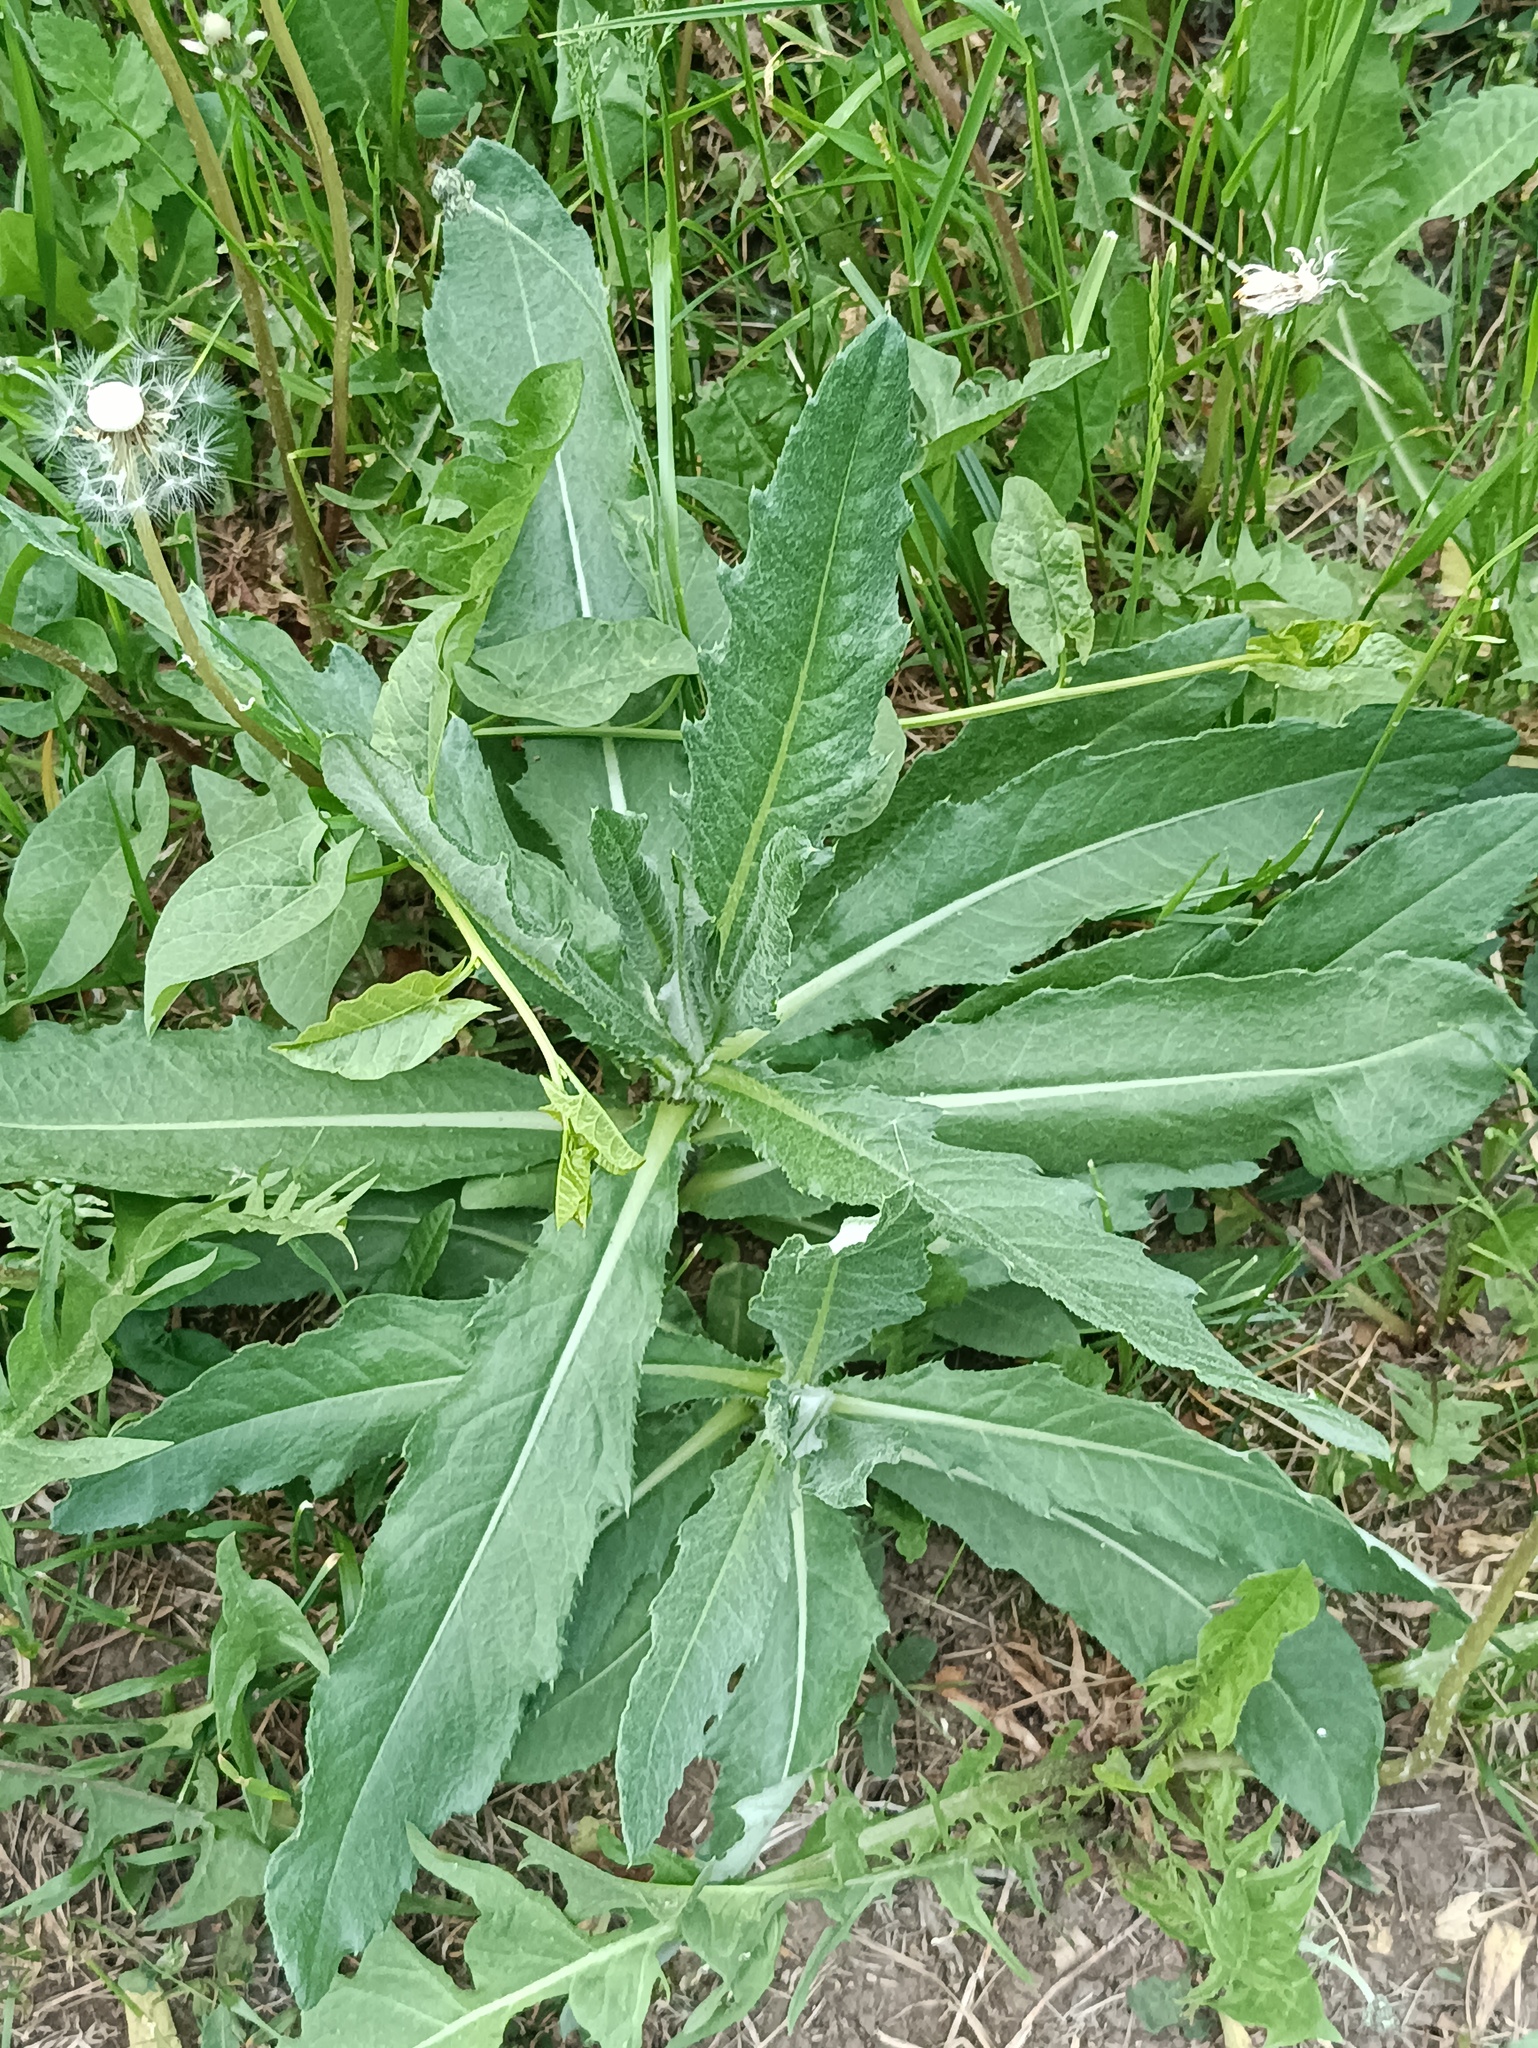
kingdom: Plantae
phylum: Tracheophyta
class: Magnoliopsida
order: Asterales
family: Asteraceae
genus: Cirsium
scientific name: Cirsium arvense
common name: Creeping thistle
